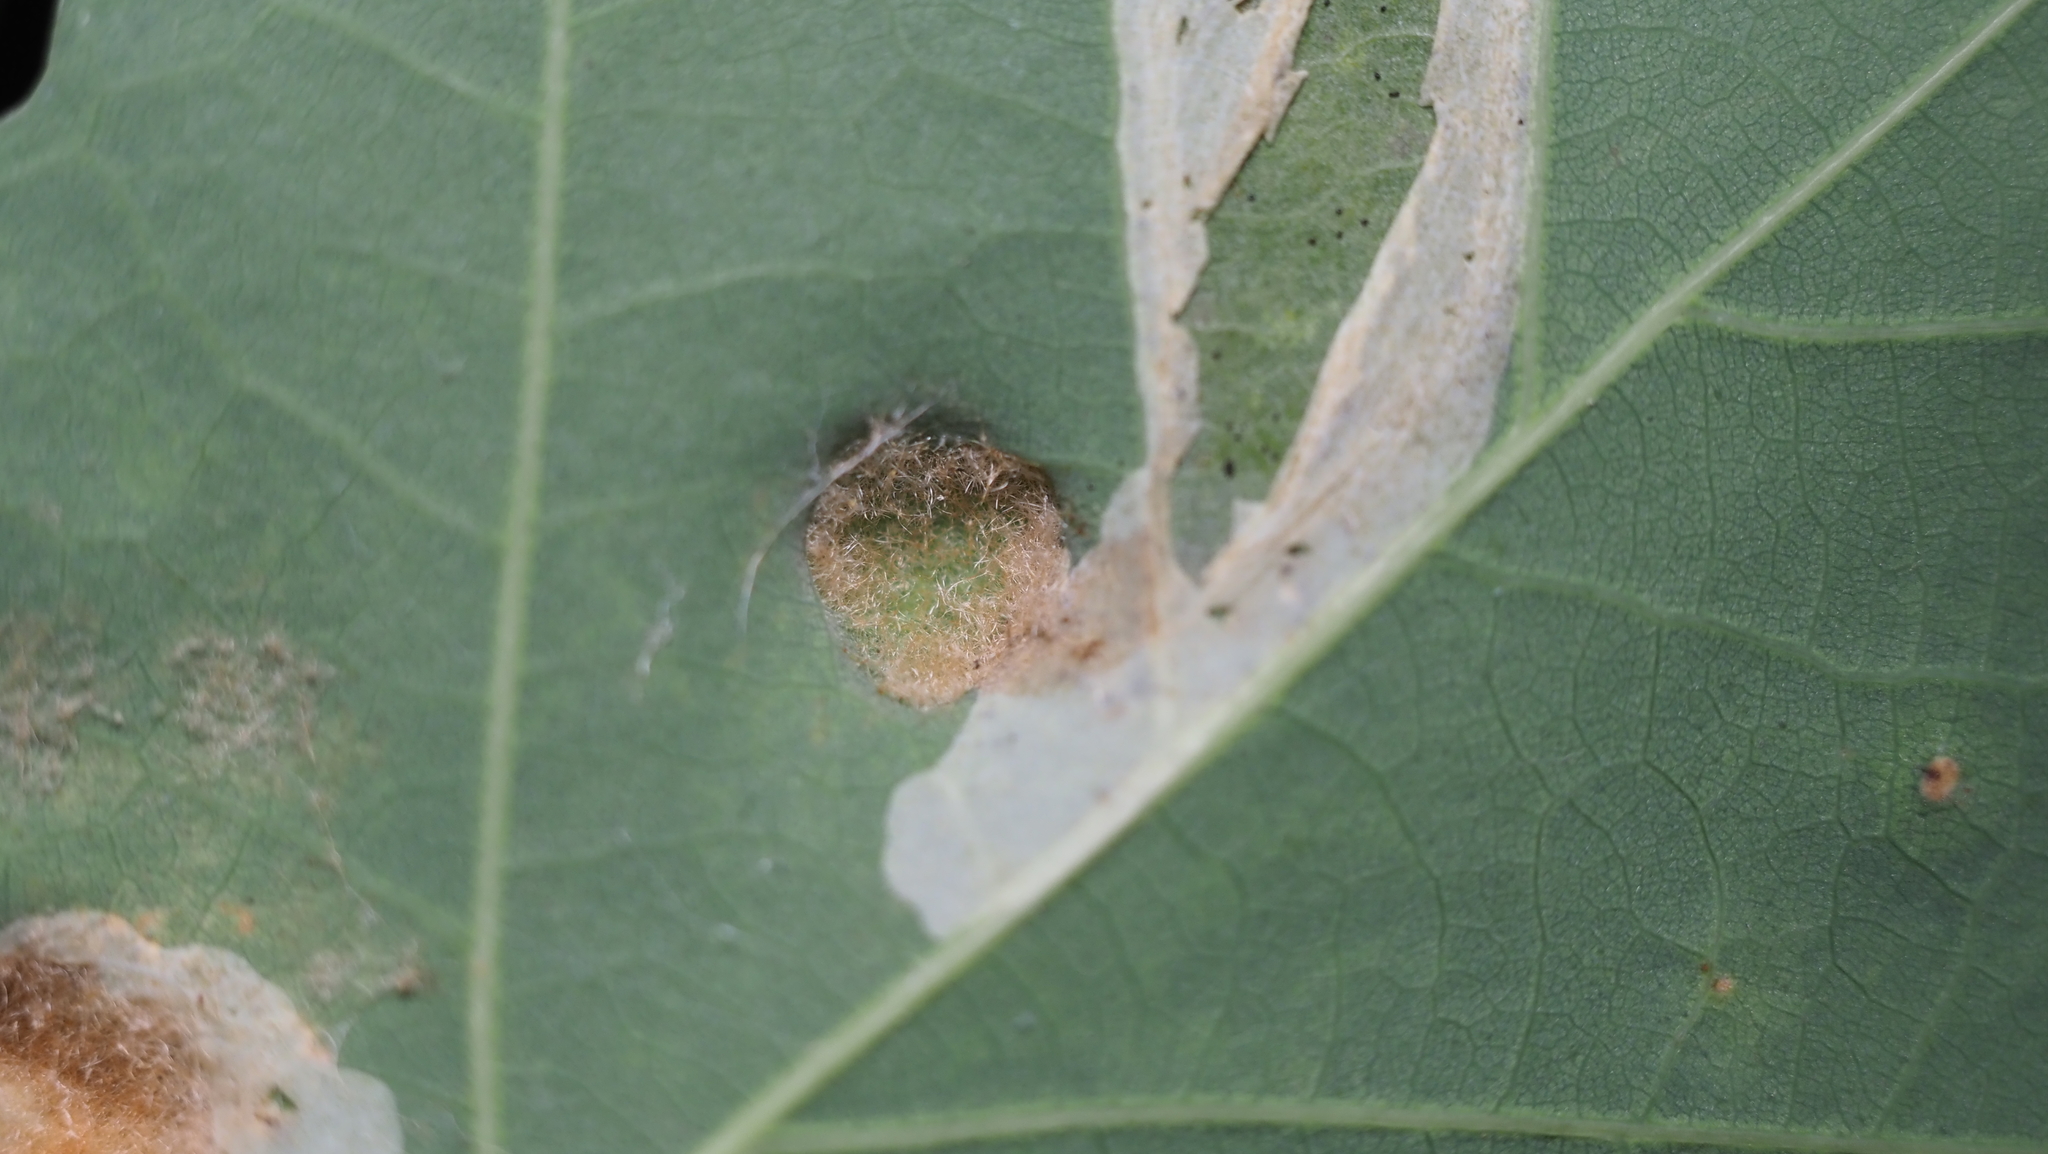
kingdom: Animalia
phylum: Arthropoda
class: Arachnida
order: Trombidiformes
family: Eriophyidae
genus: Aceria
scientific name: Aceria
